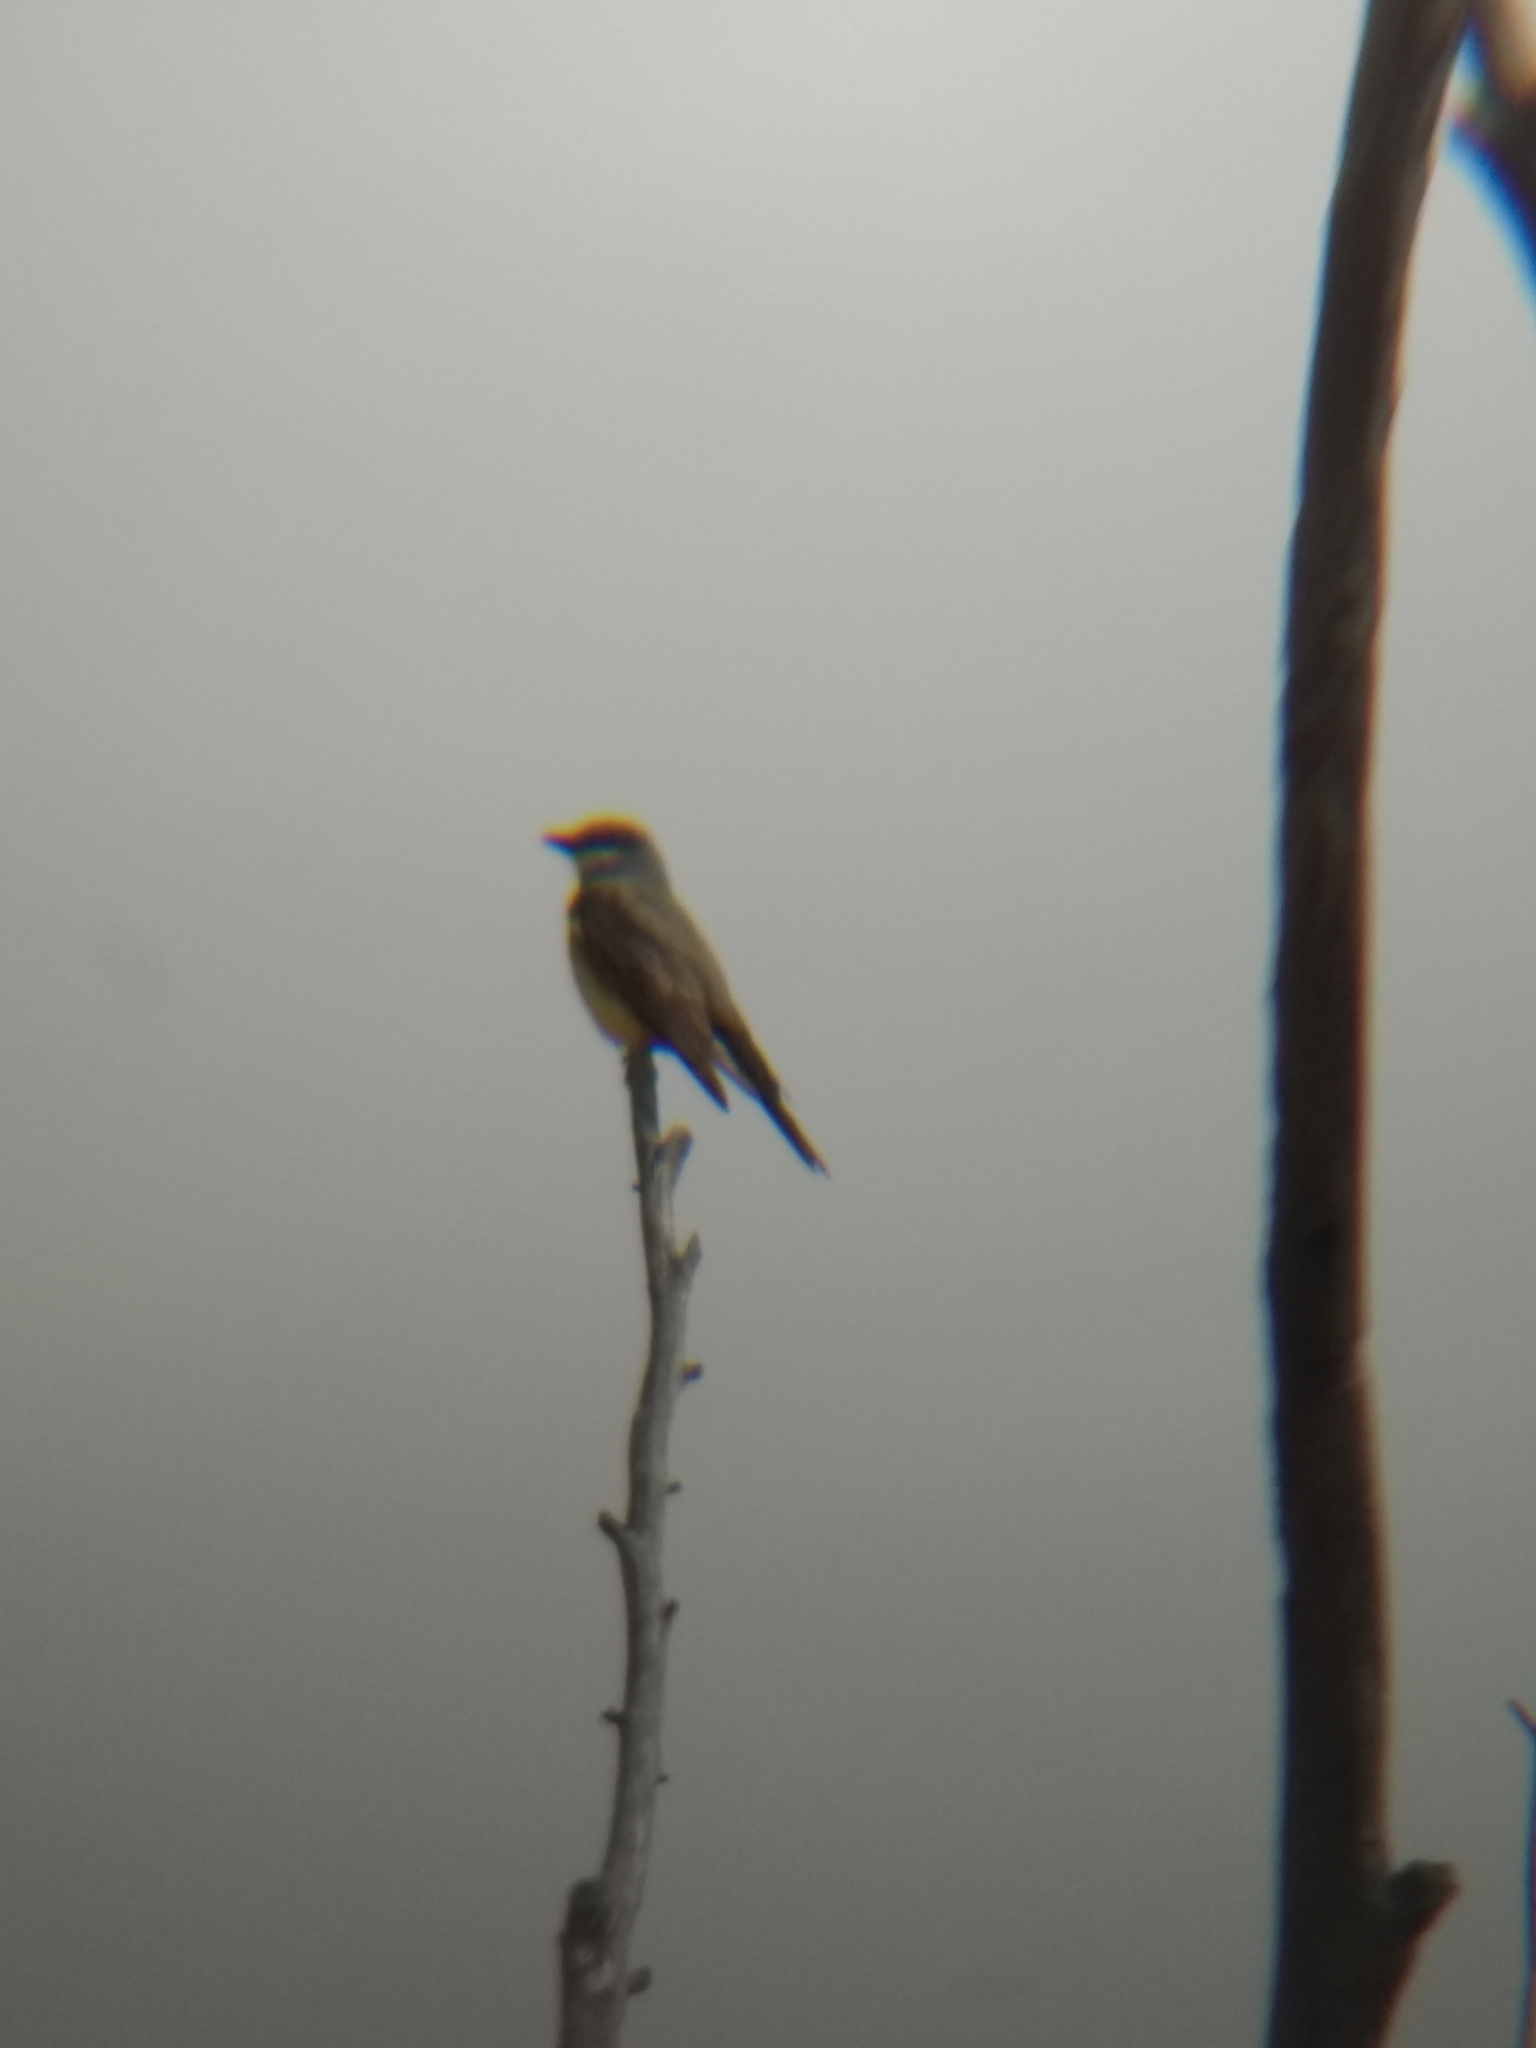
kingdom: Animalia
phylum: Chordata
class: Aves
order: Passeriformes
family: Tyrannidae
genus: Tyrannus
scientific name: Tyrannus vociferans
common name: Cassin's kingbird
